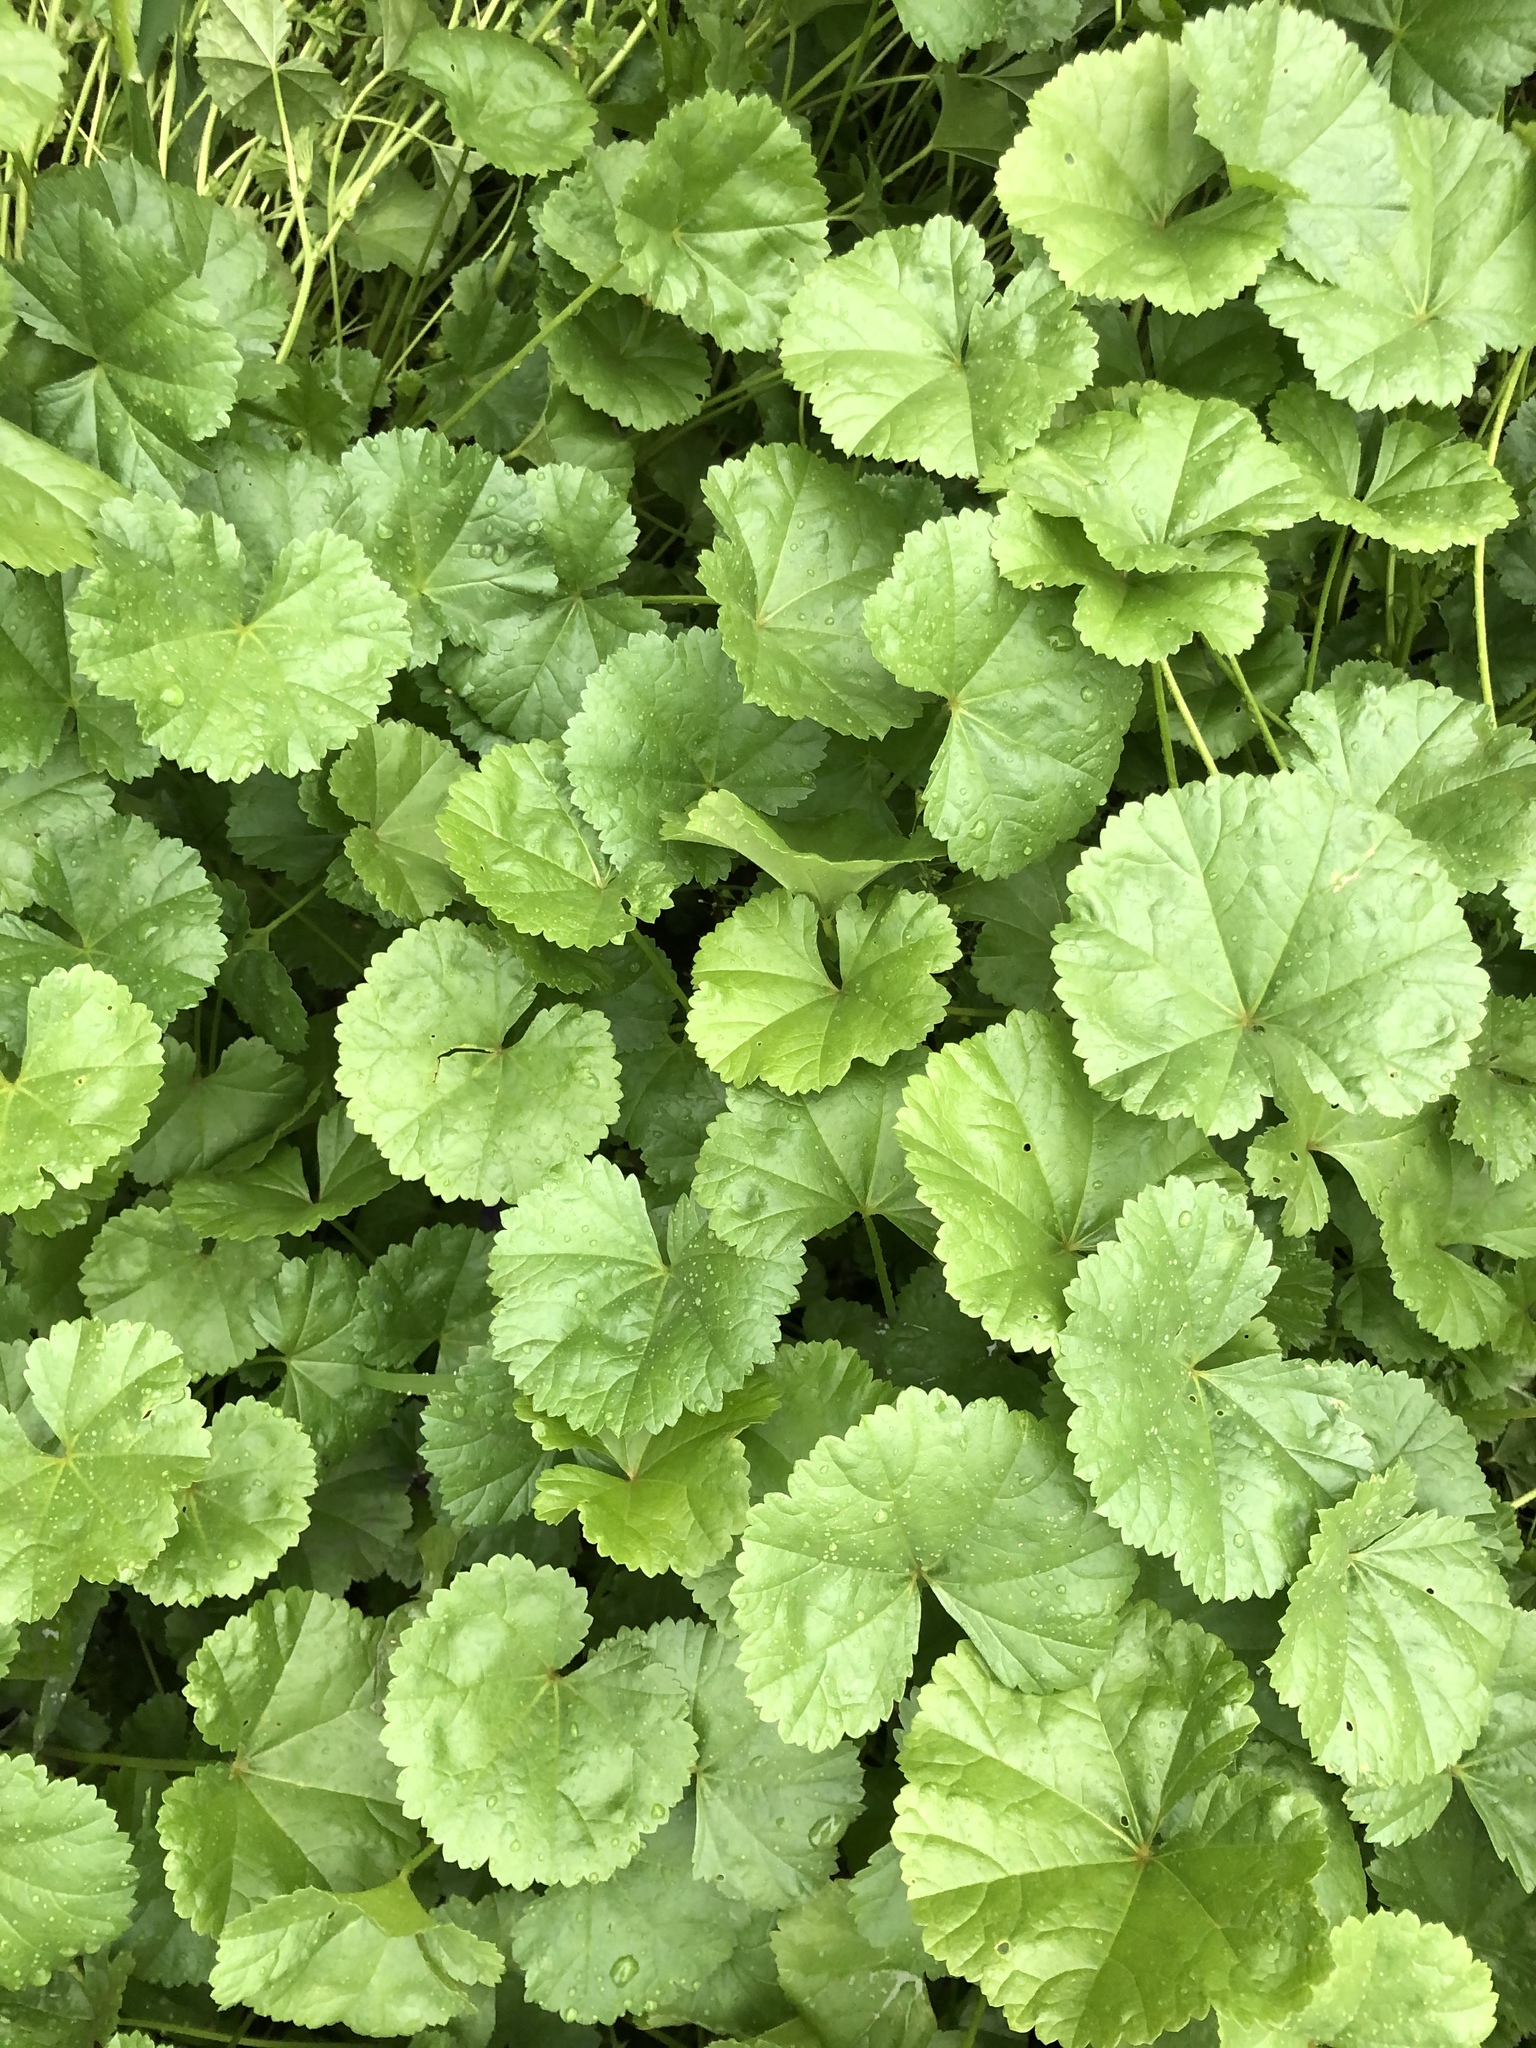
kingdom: Plantae
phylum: Tracheophyta
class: Magnoliopsida
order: Malvales
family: Malvaceae
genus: Malva
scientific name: Malva pusilla
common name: Small mallow
